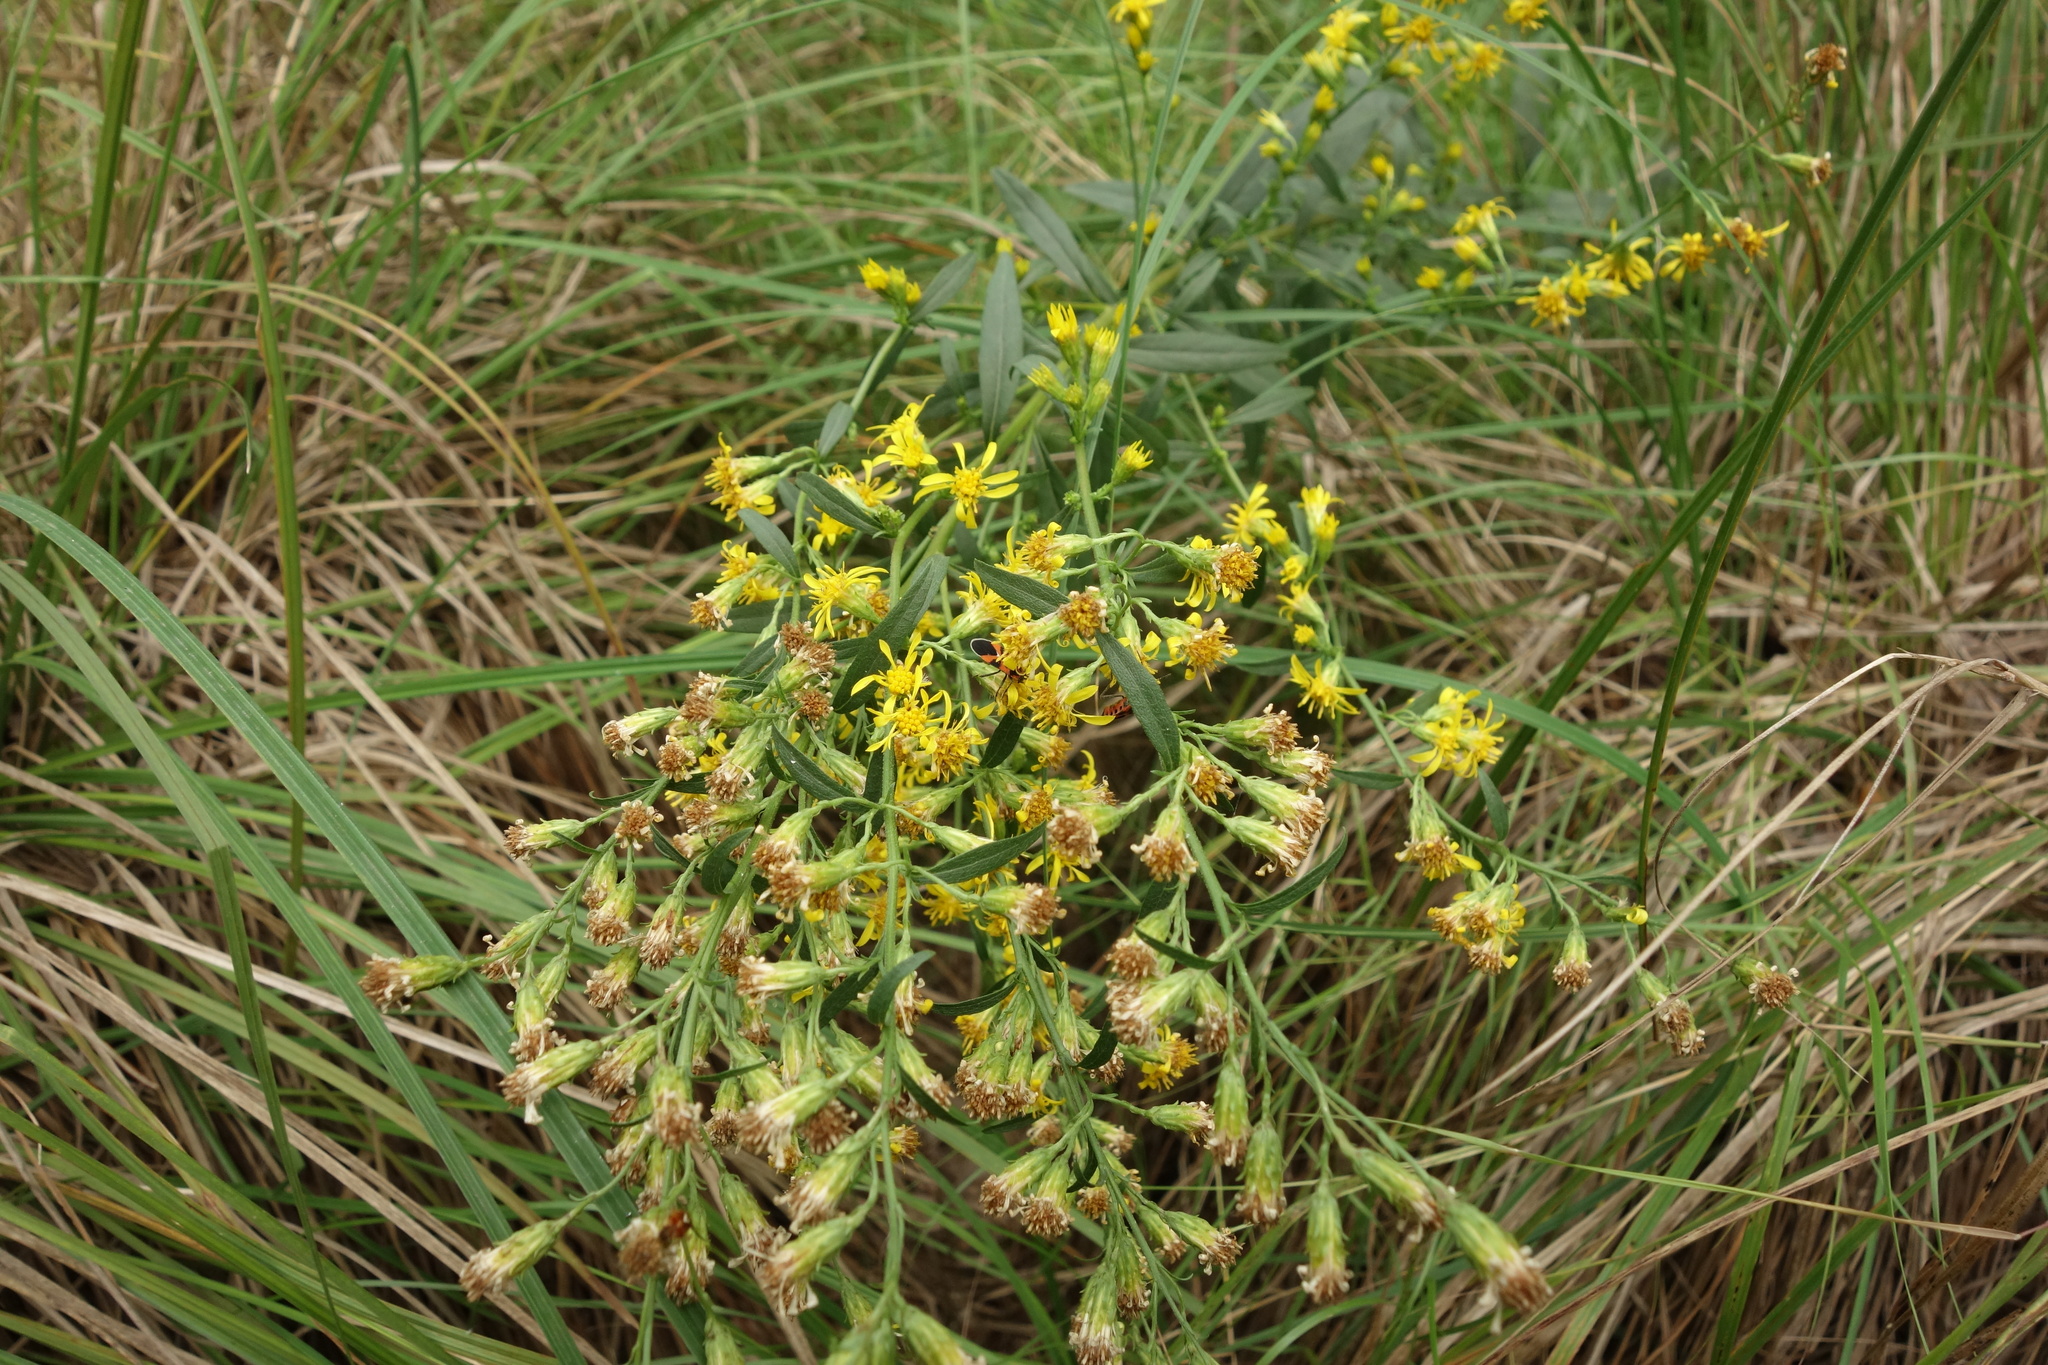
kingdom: Plantae
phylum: Tracheophyta
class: Magnoliopsida
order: Asterales
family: Asteraceae
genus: Solidago
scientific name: Solidago virgaurea
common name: Goldenrod
